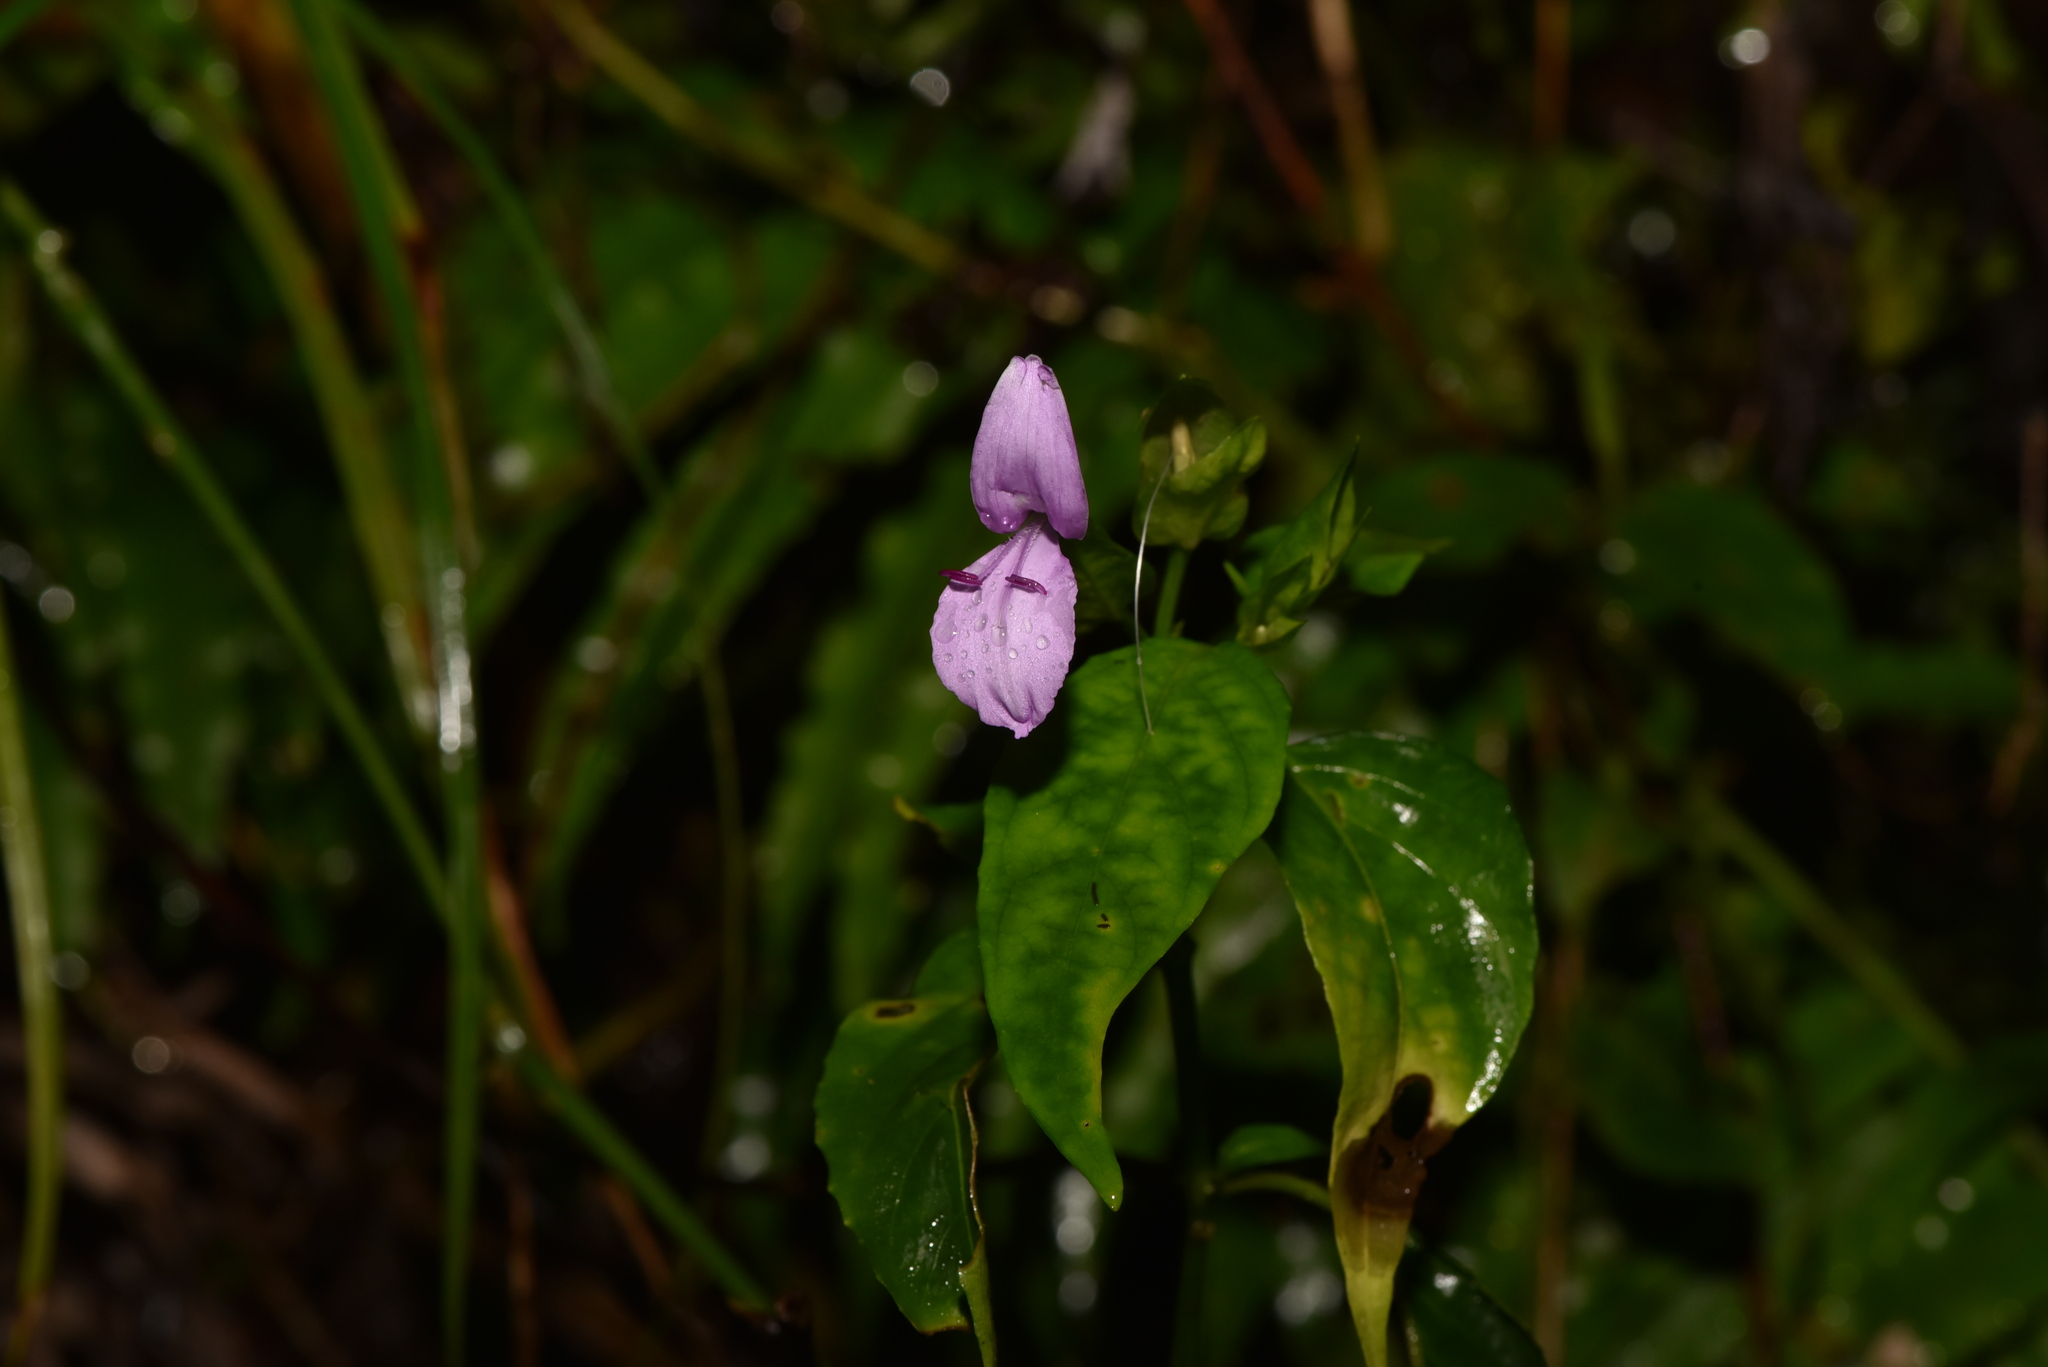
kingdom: Plantae
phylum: Tracheophyta
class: Magnoliopsida
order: Lamiales
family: Acanthaceae
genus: Dicliptera
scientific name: Dicliptera tinctoria
